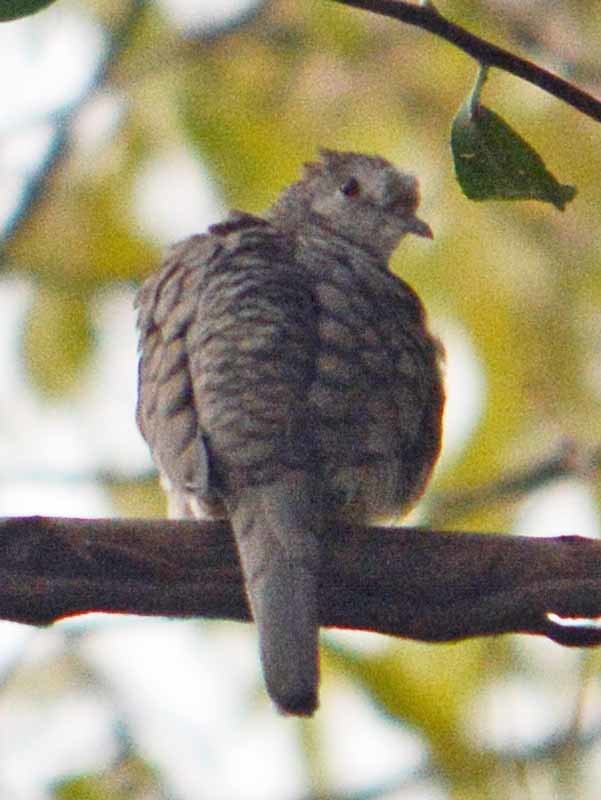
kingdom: Animalia
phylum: Chordata
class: Aves
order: Columbiformes
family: Columbidae
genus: Columbina
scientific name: Columbina inca
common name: Inca dove
